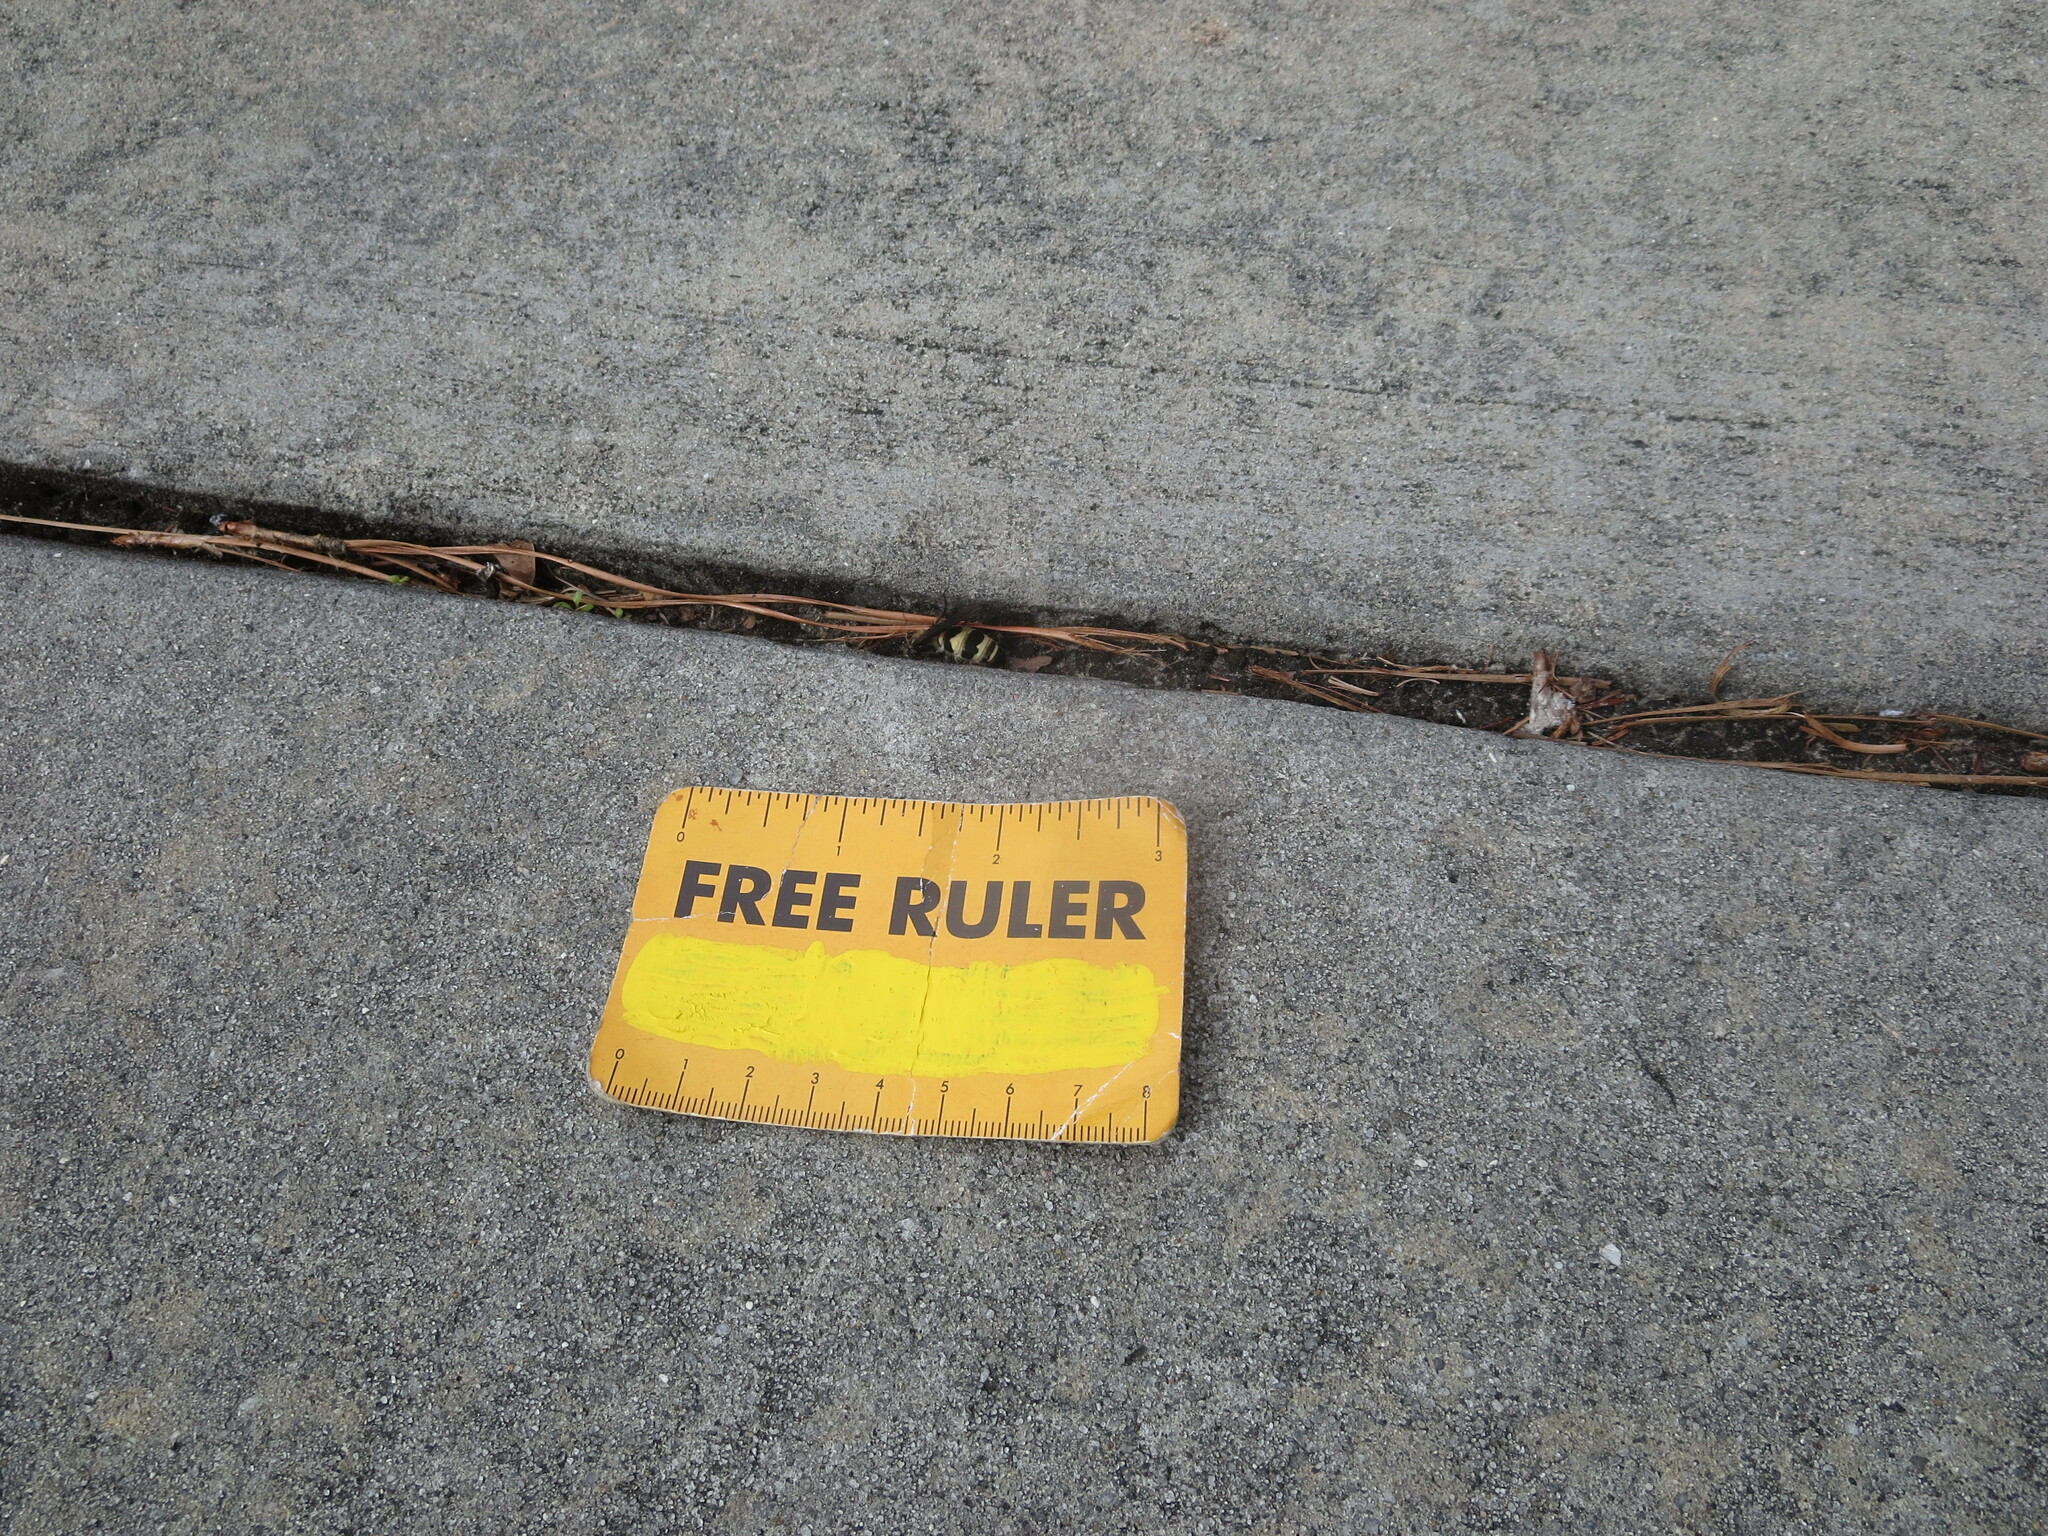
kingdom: Animalia
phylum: Arthropoda
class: Insecta
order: Hymenoptera
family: Scoliidae
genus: Dielis
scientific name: Dielis
